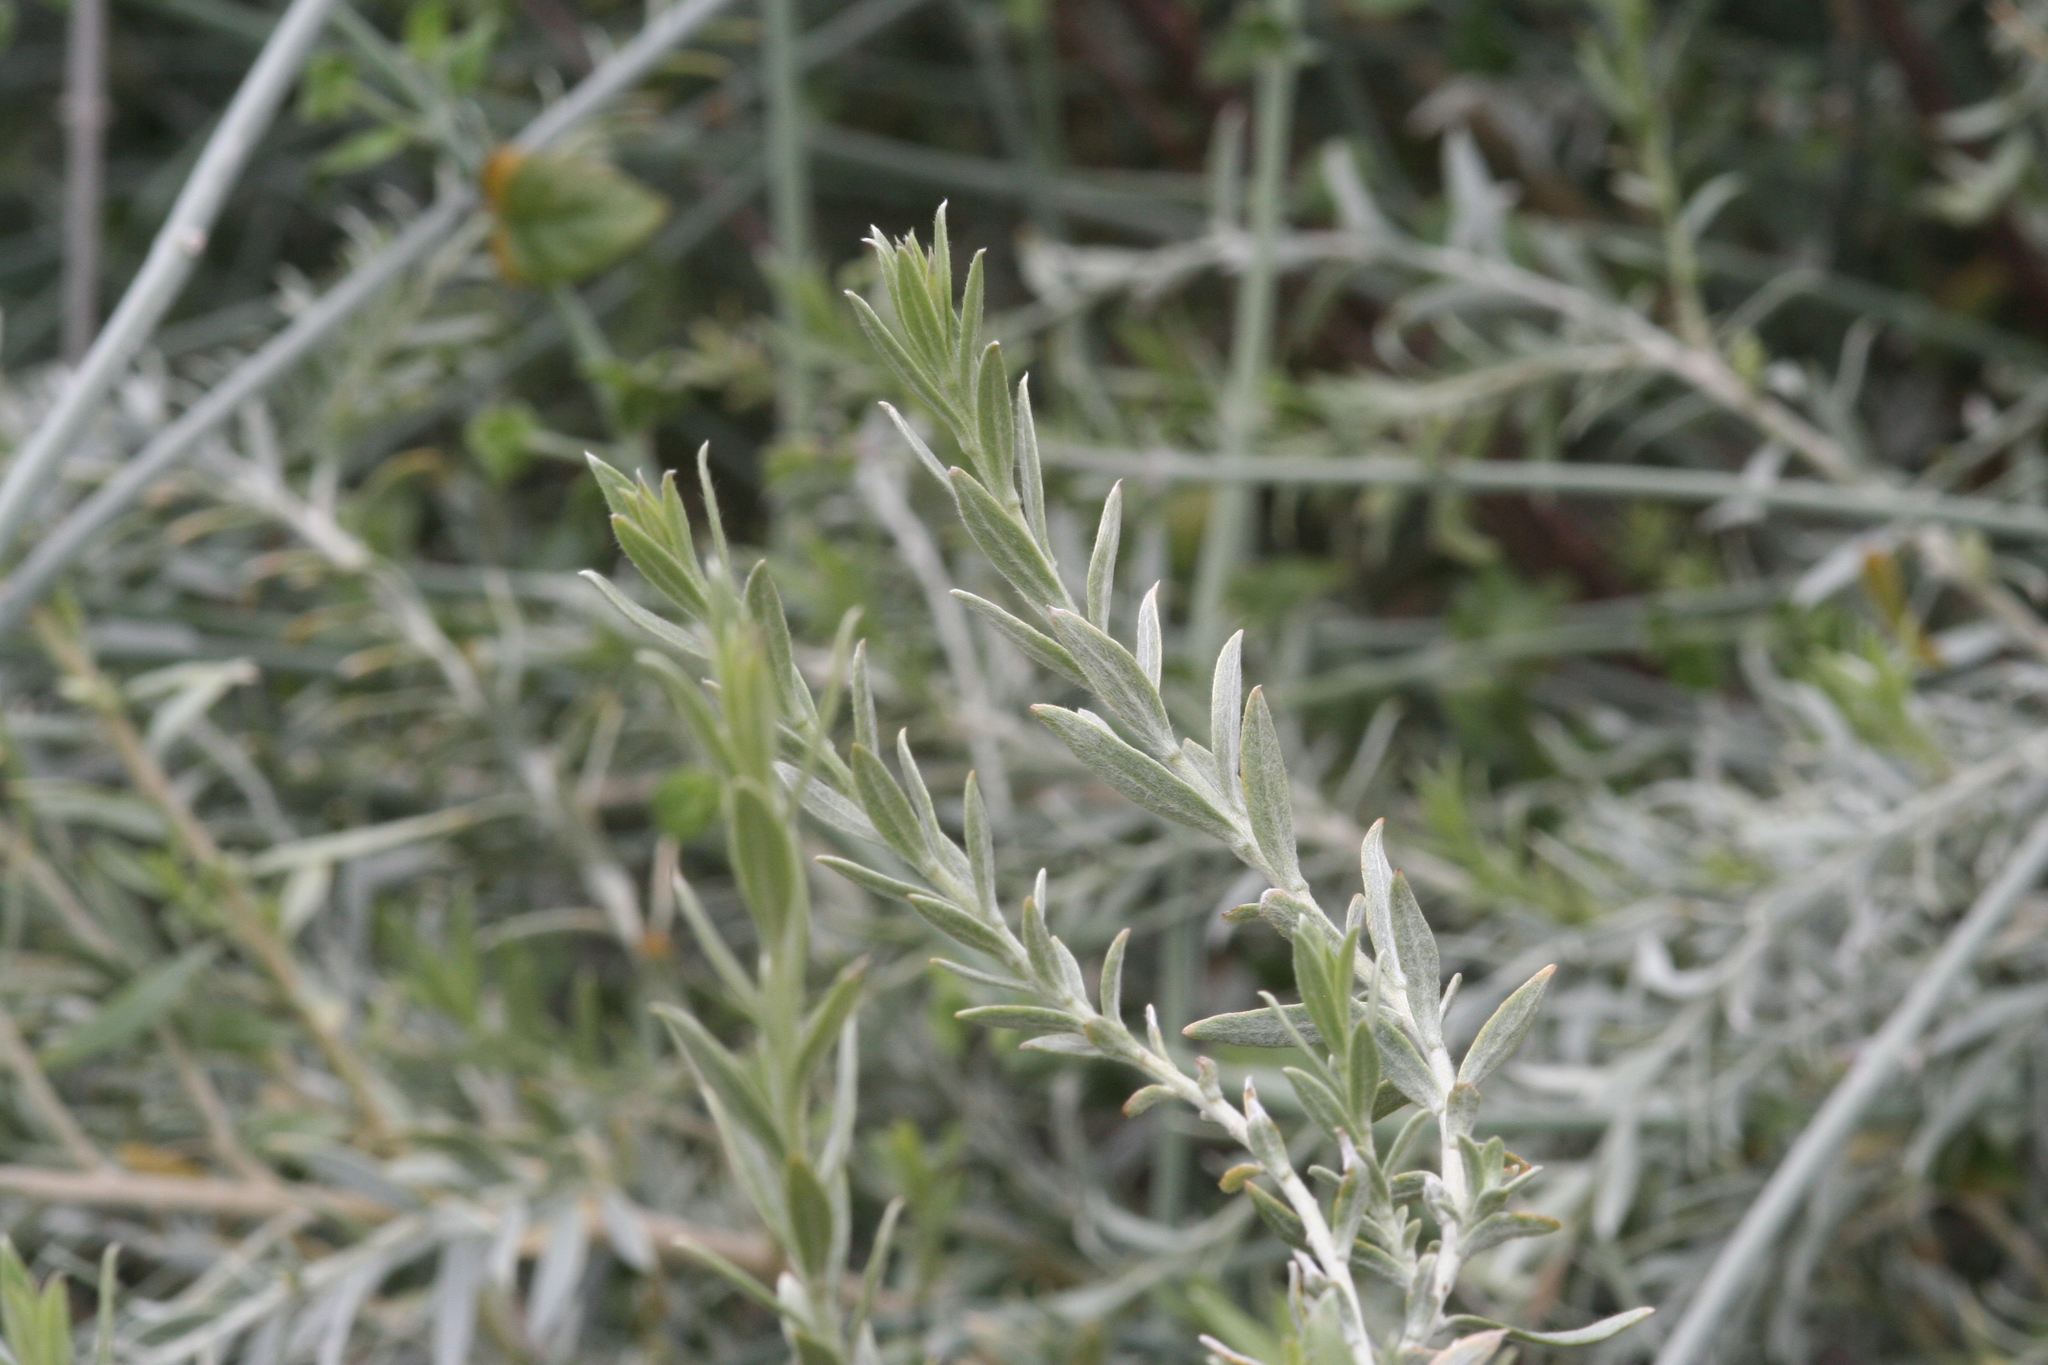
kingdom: Plantae
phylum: Tracheophyta
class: Magnoliopsida
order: Asterales
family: Asteraceae
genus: Pluchea
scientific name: Pluchea sericea
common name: Arrow-weed
